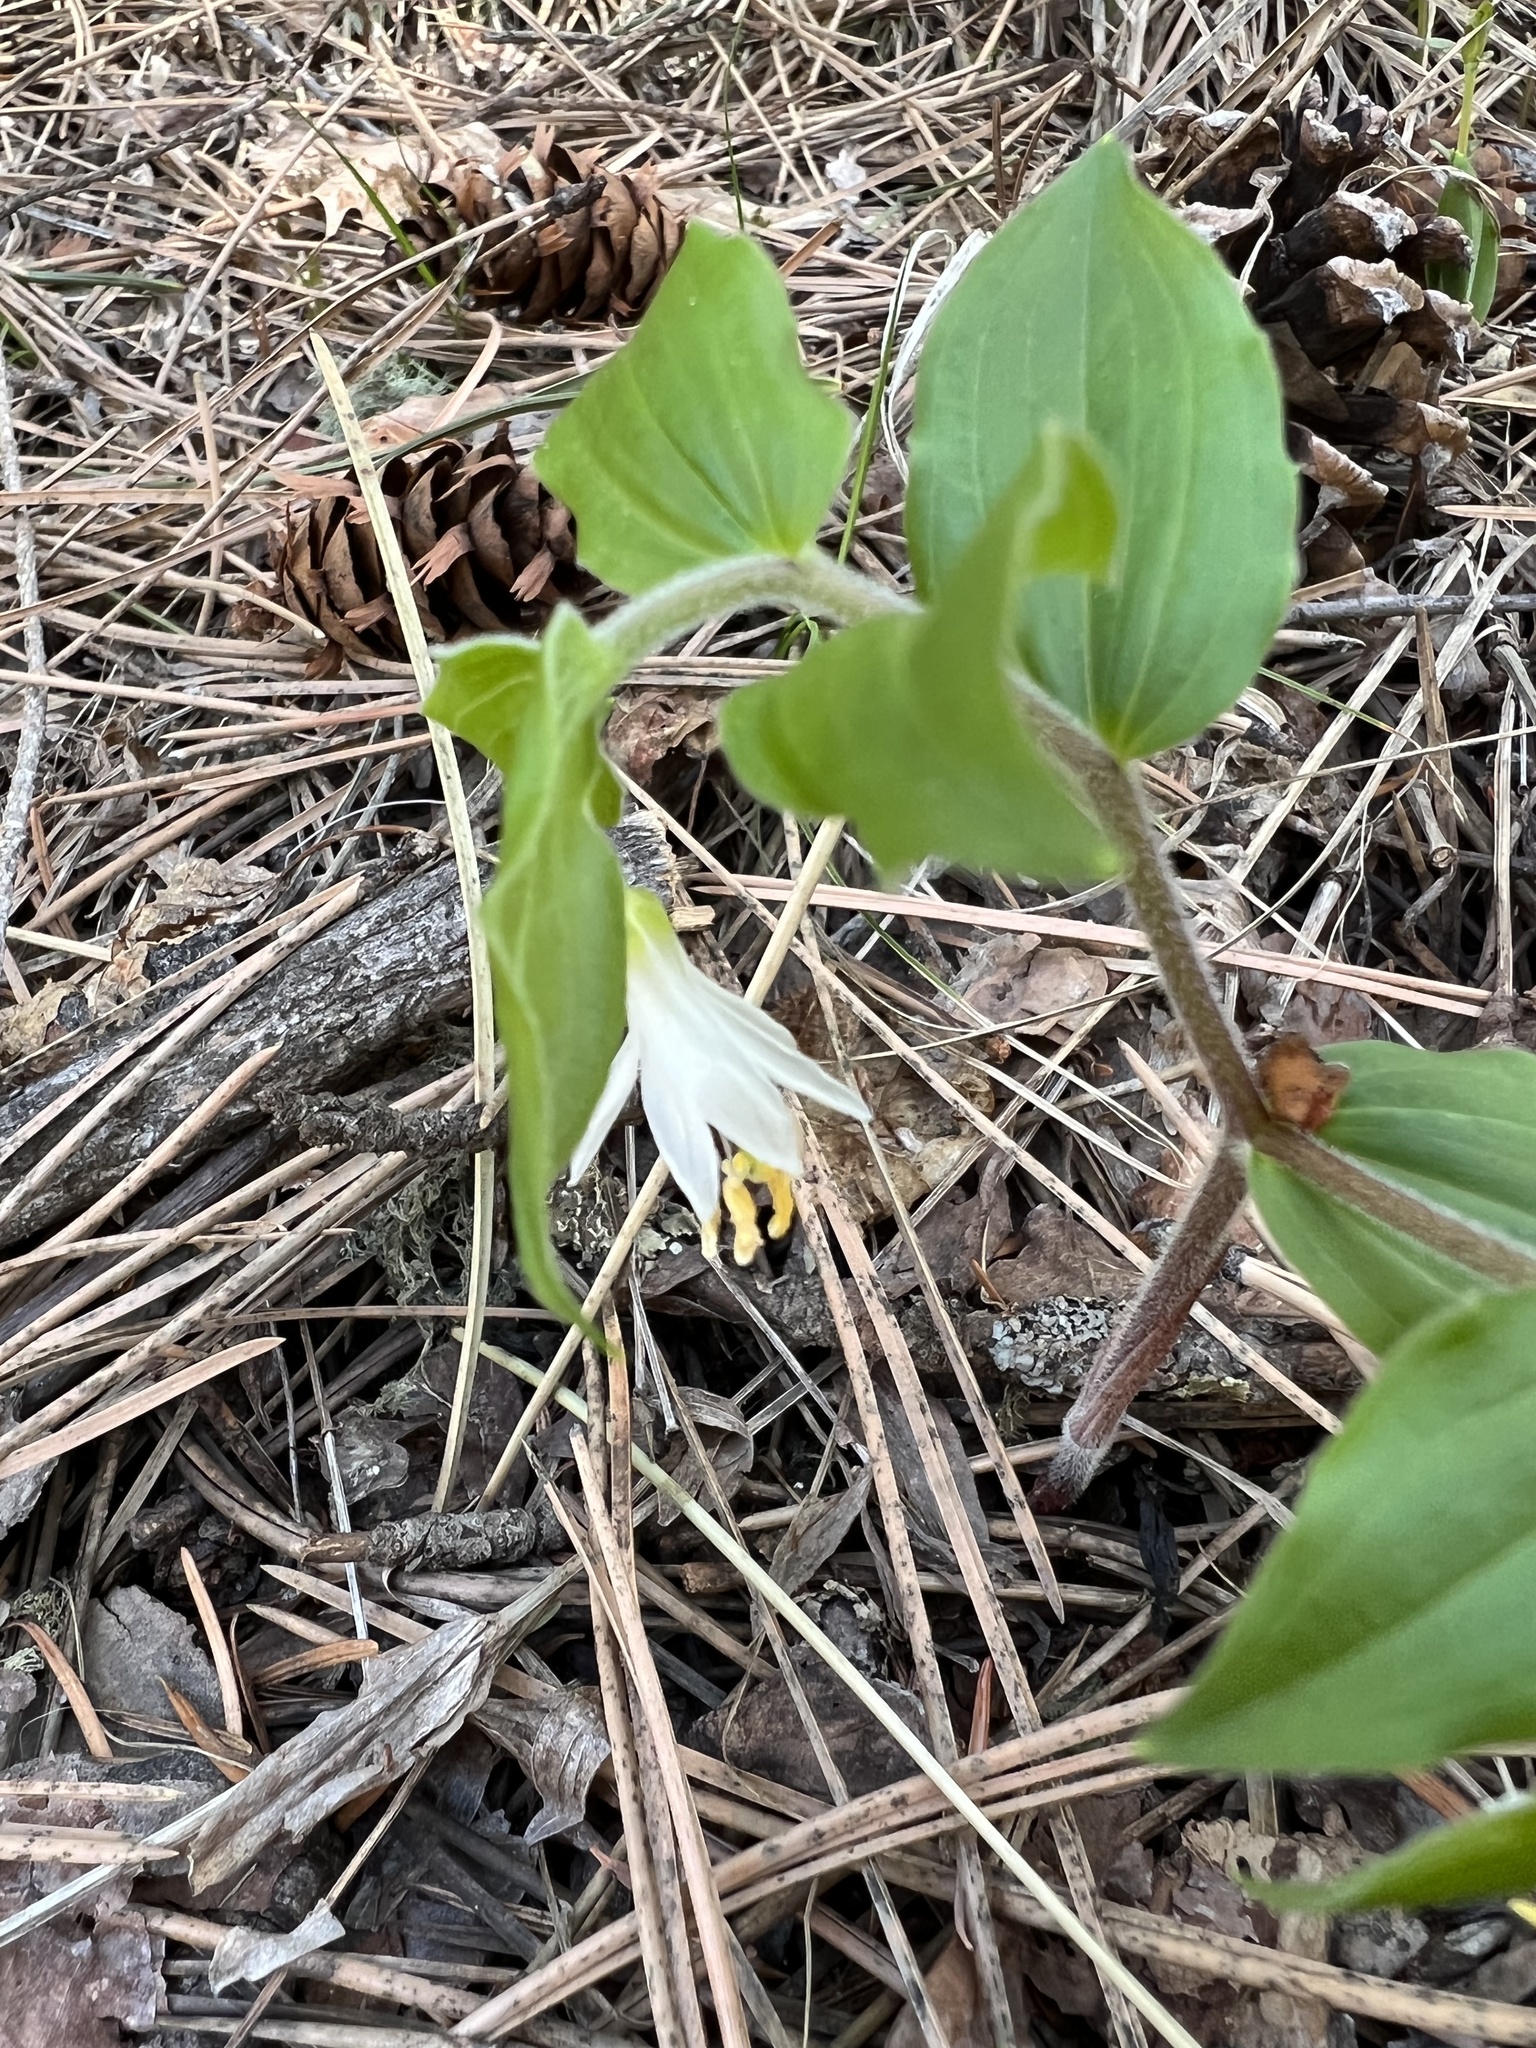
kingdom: Plantae
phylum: Tracheophyta
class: Liliopsida
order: Liliales
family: Liliaceae
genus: Prosartes
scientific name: Prosartes trachycarpa
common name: Rough-fruit fairy-bells
